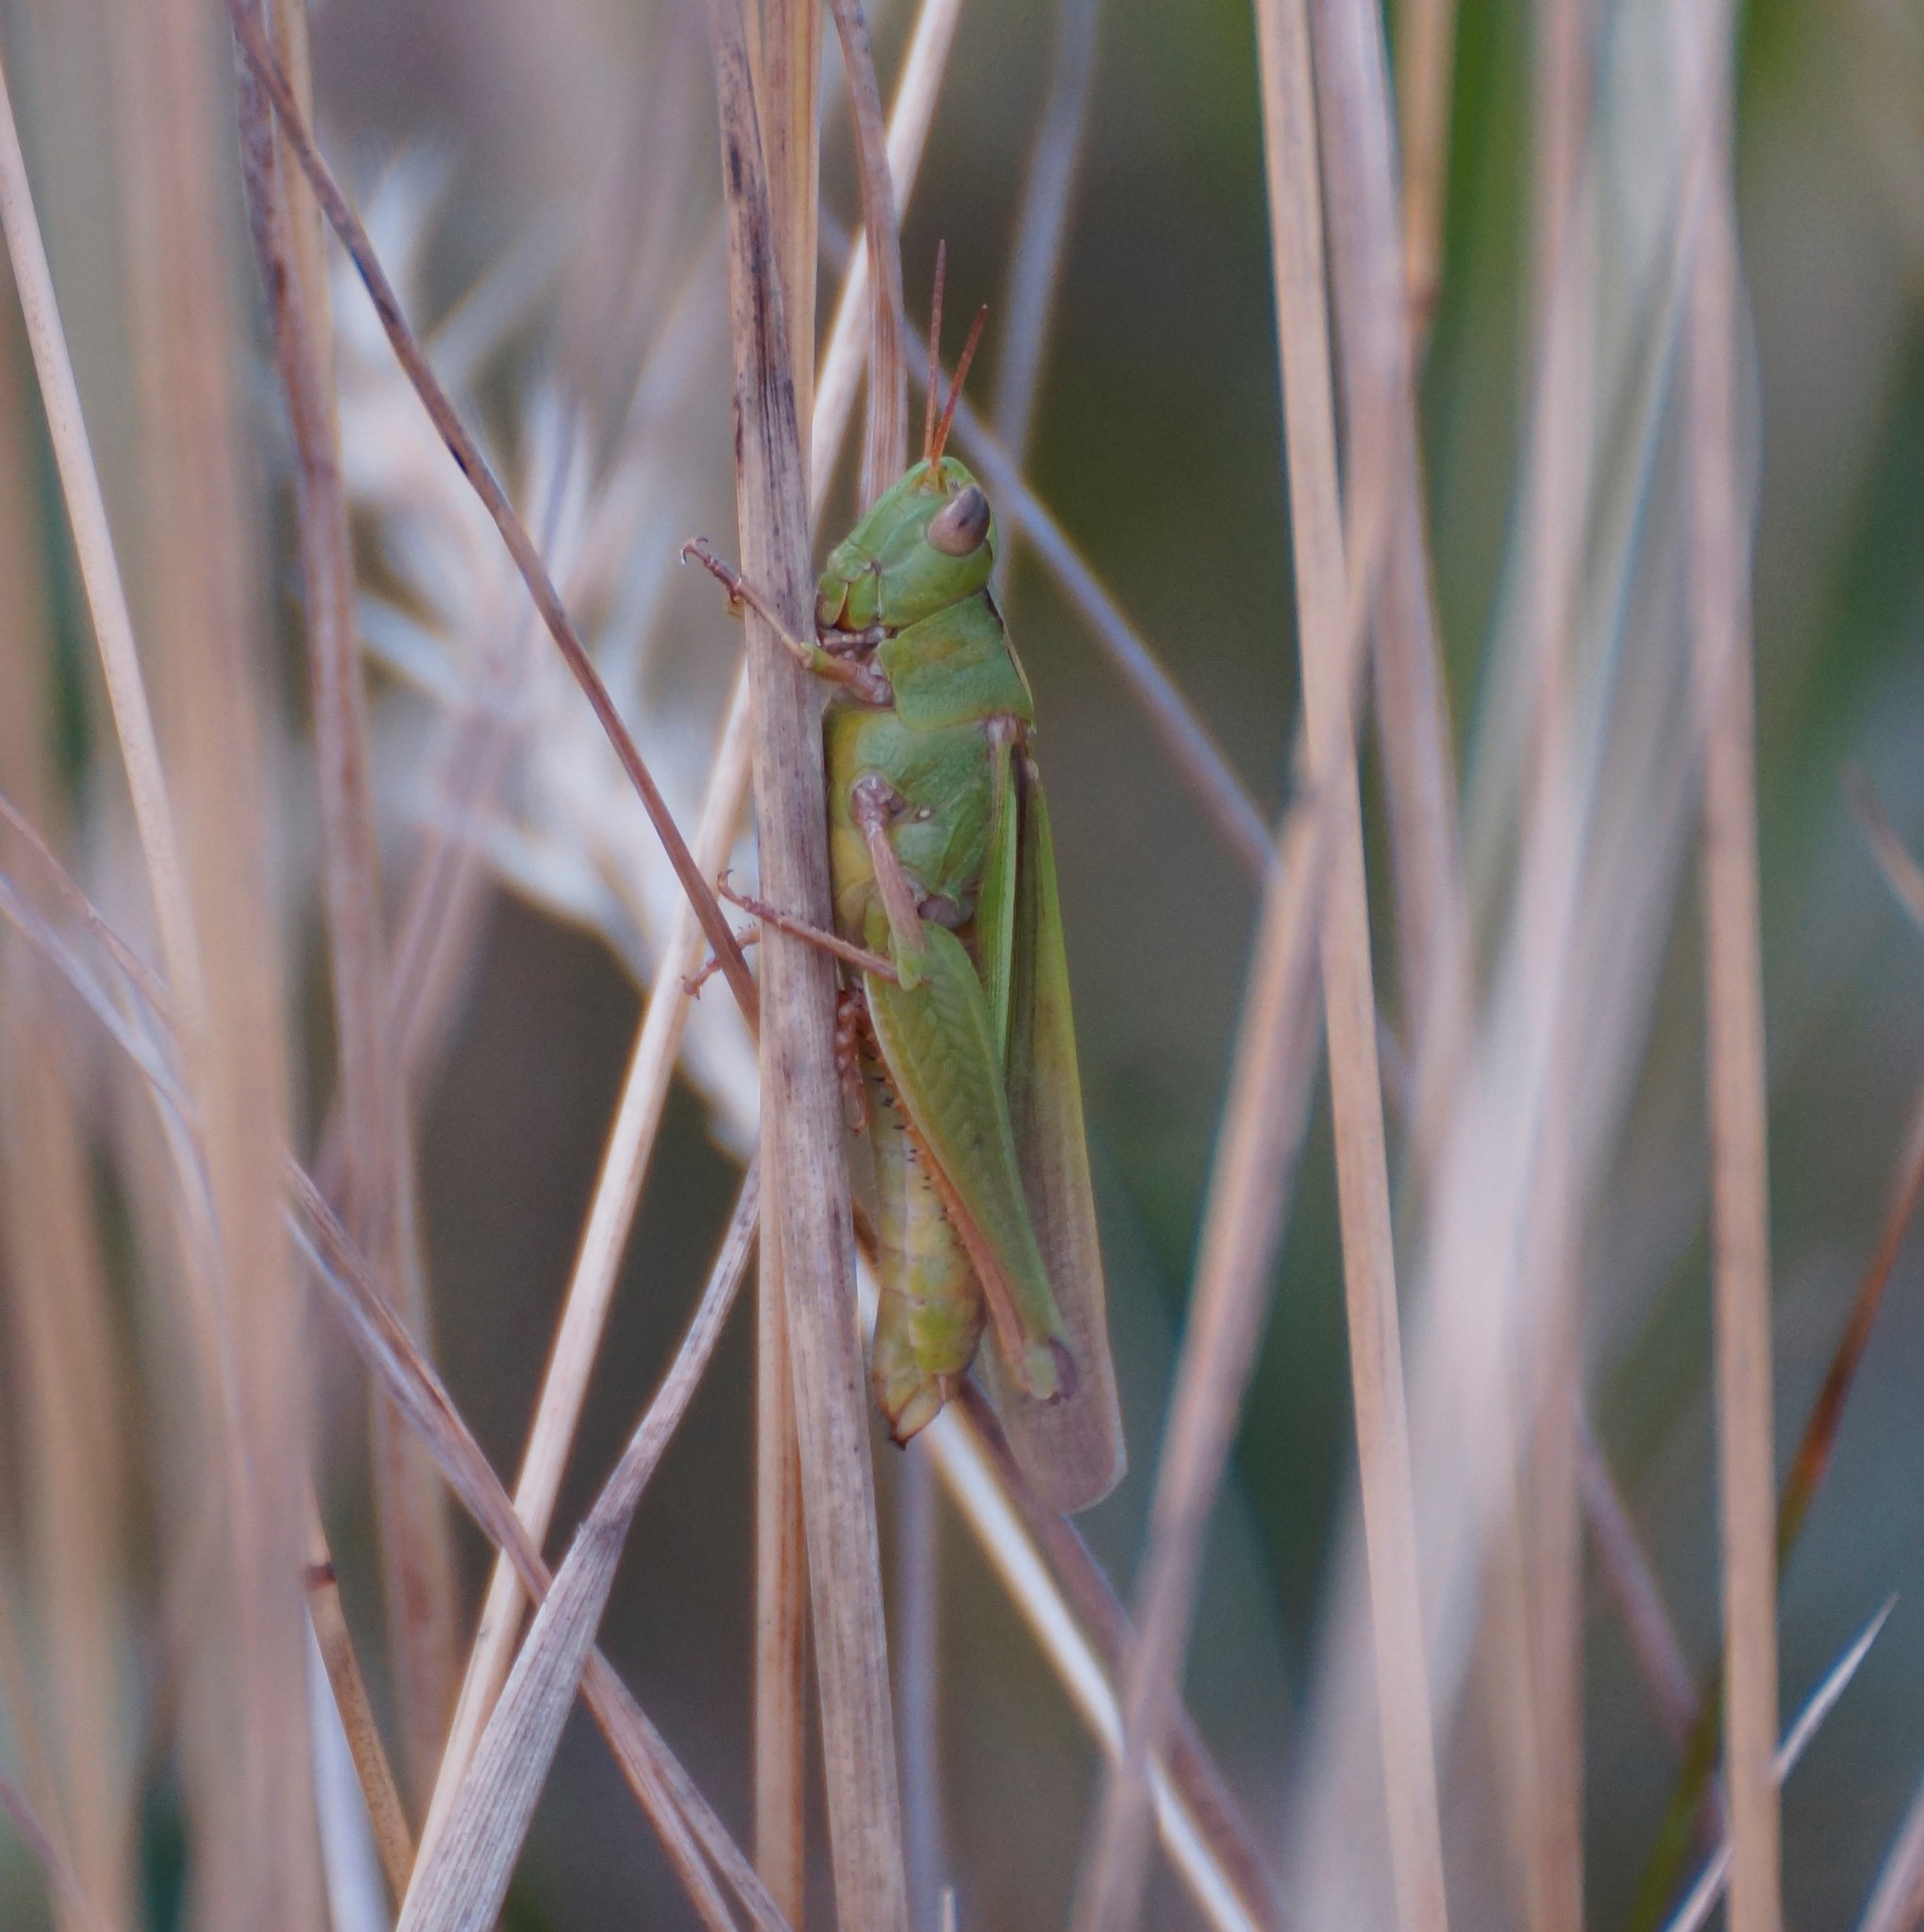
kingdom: Animalia
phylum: Arthropoda
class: Insecta
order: Orthoptera
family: Acrididae
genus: Schizobothrus
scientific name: Schizobothrus flavovittatus
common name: Disappearing grasshopper
